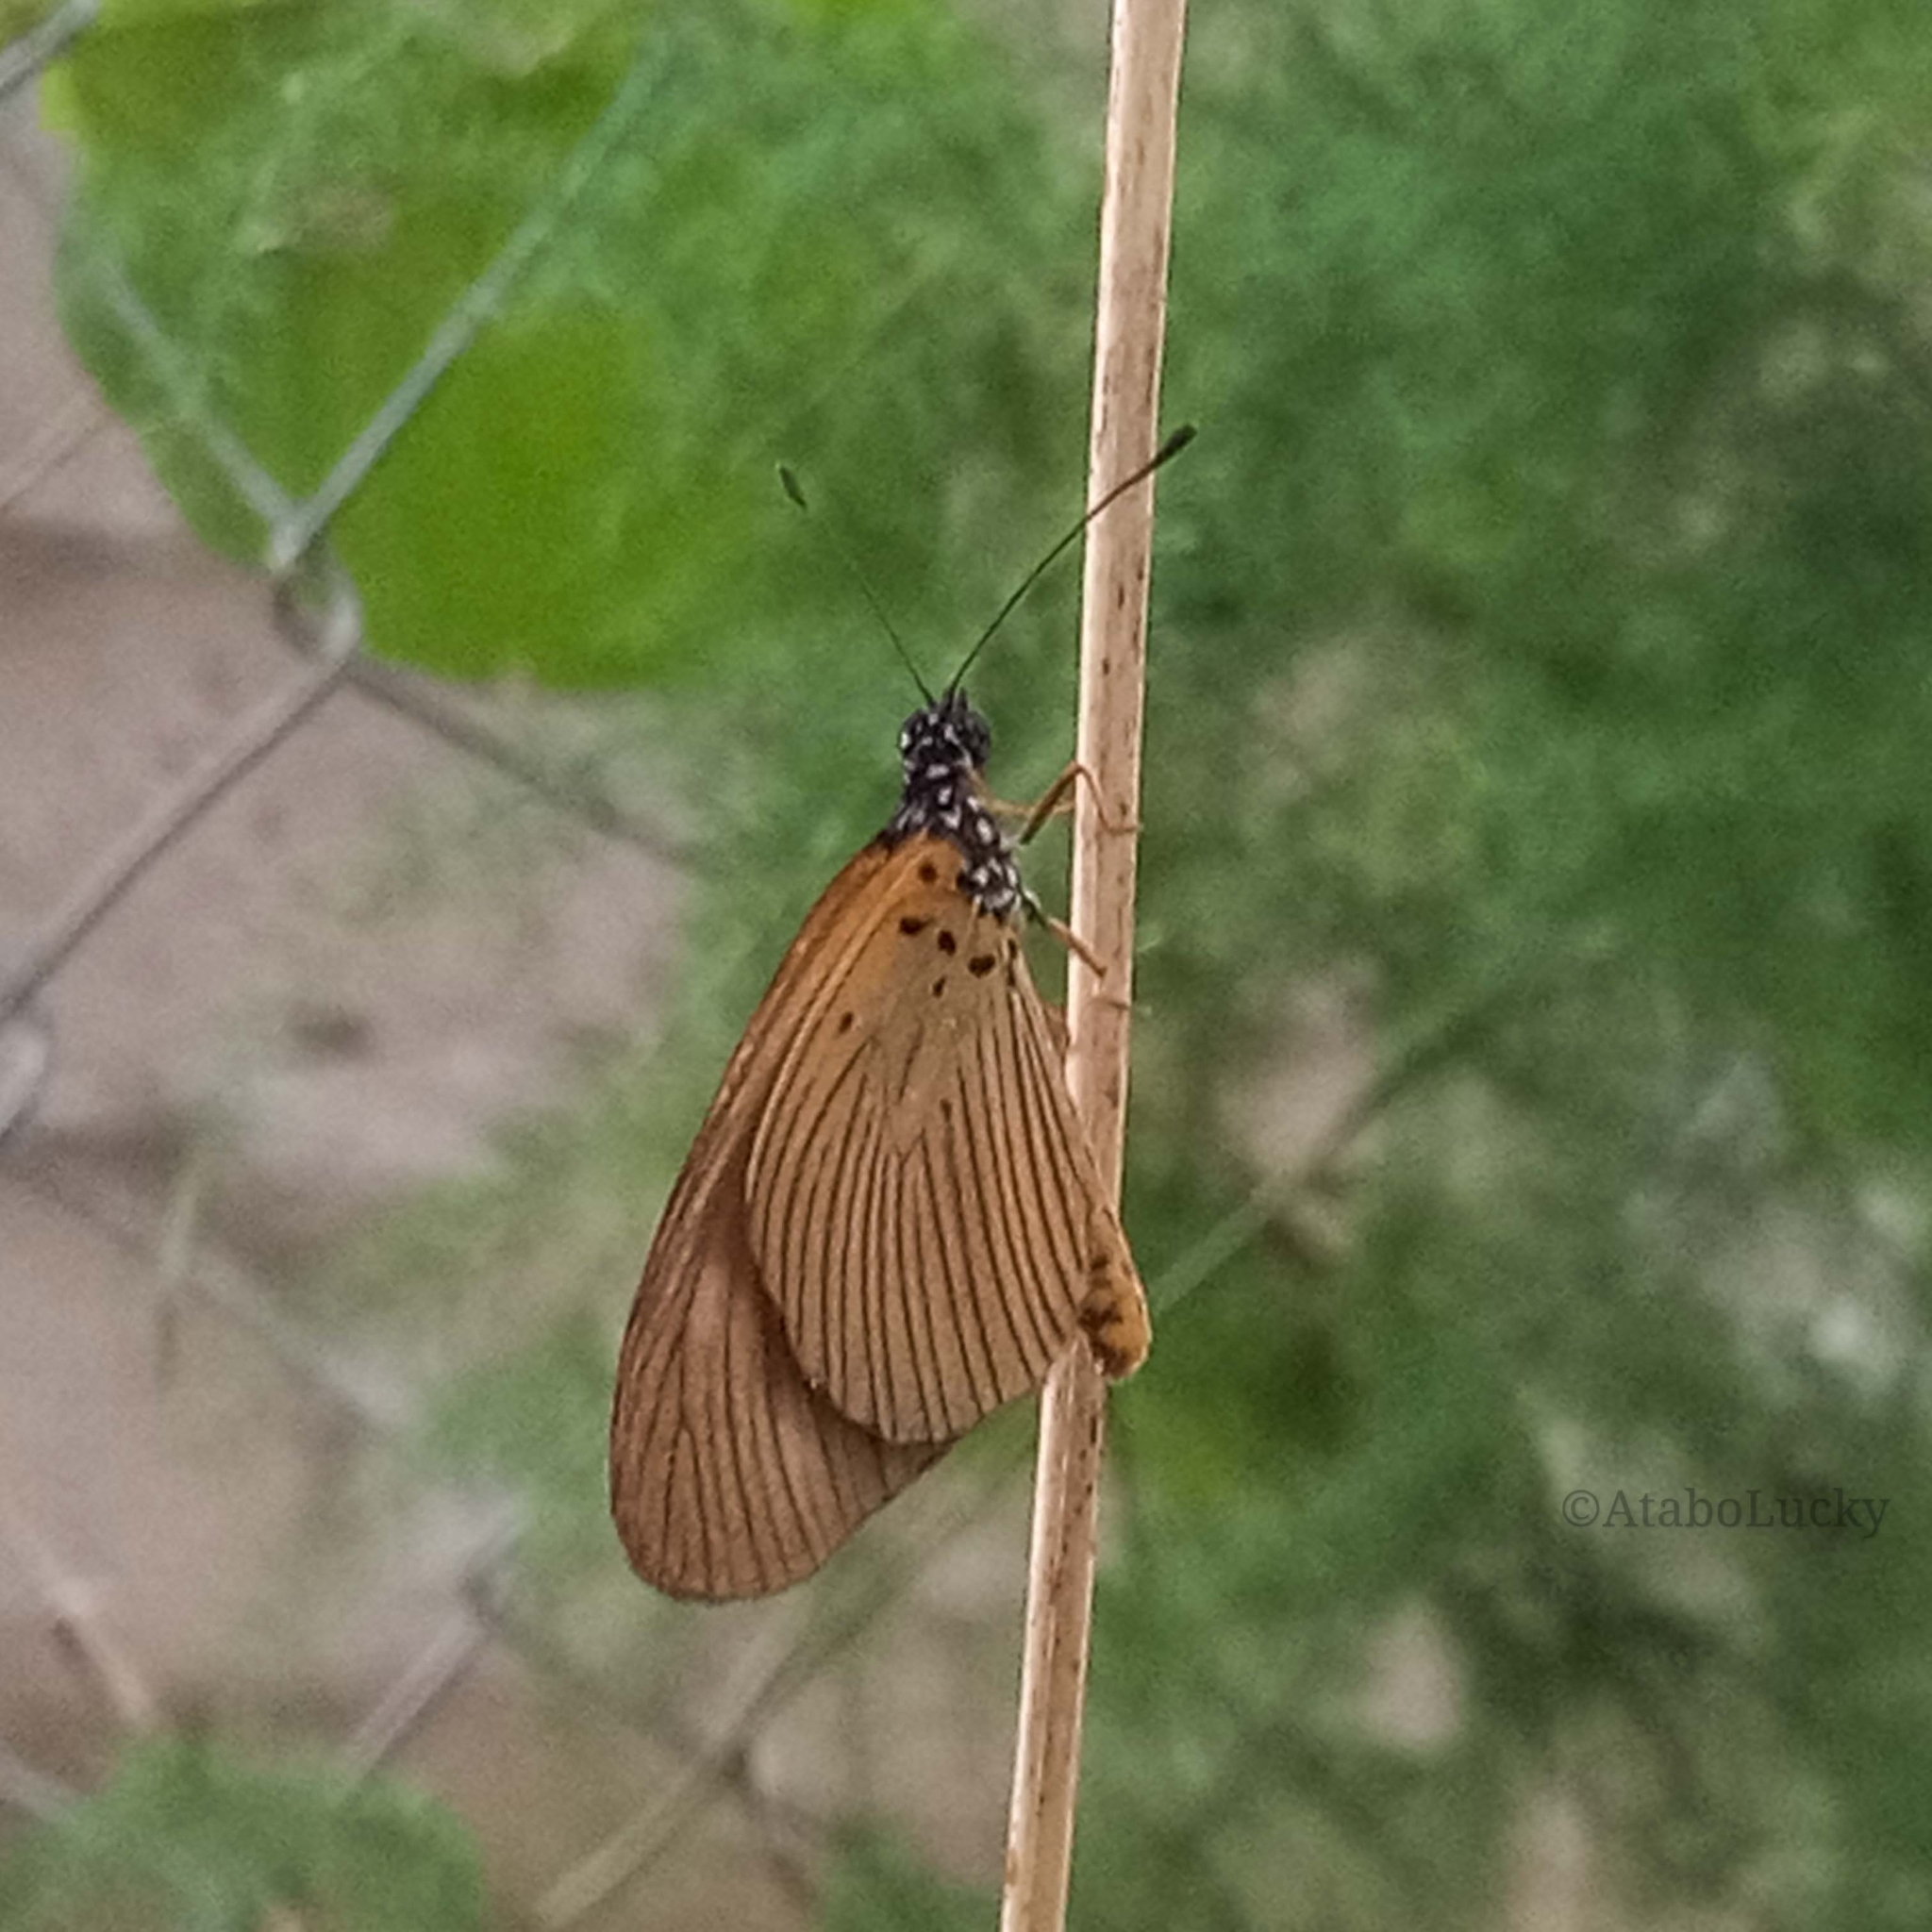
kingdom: Animalia
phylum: Arthropoda
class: Insecta
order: Lepidoptera
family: Nymphalidae
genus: Acraea
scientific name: Acraea Telchinia lycoa
